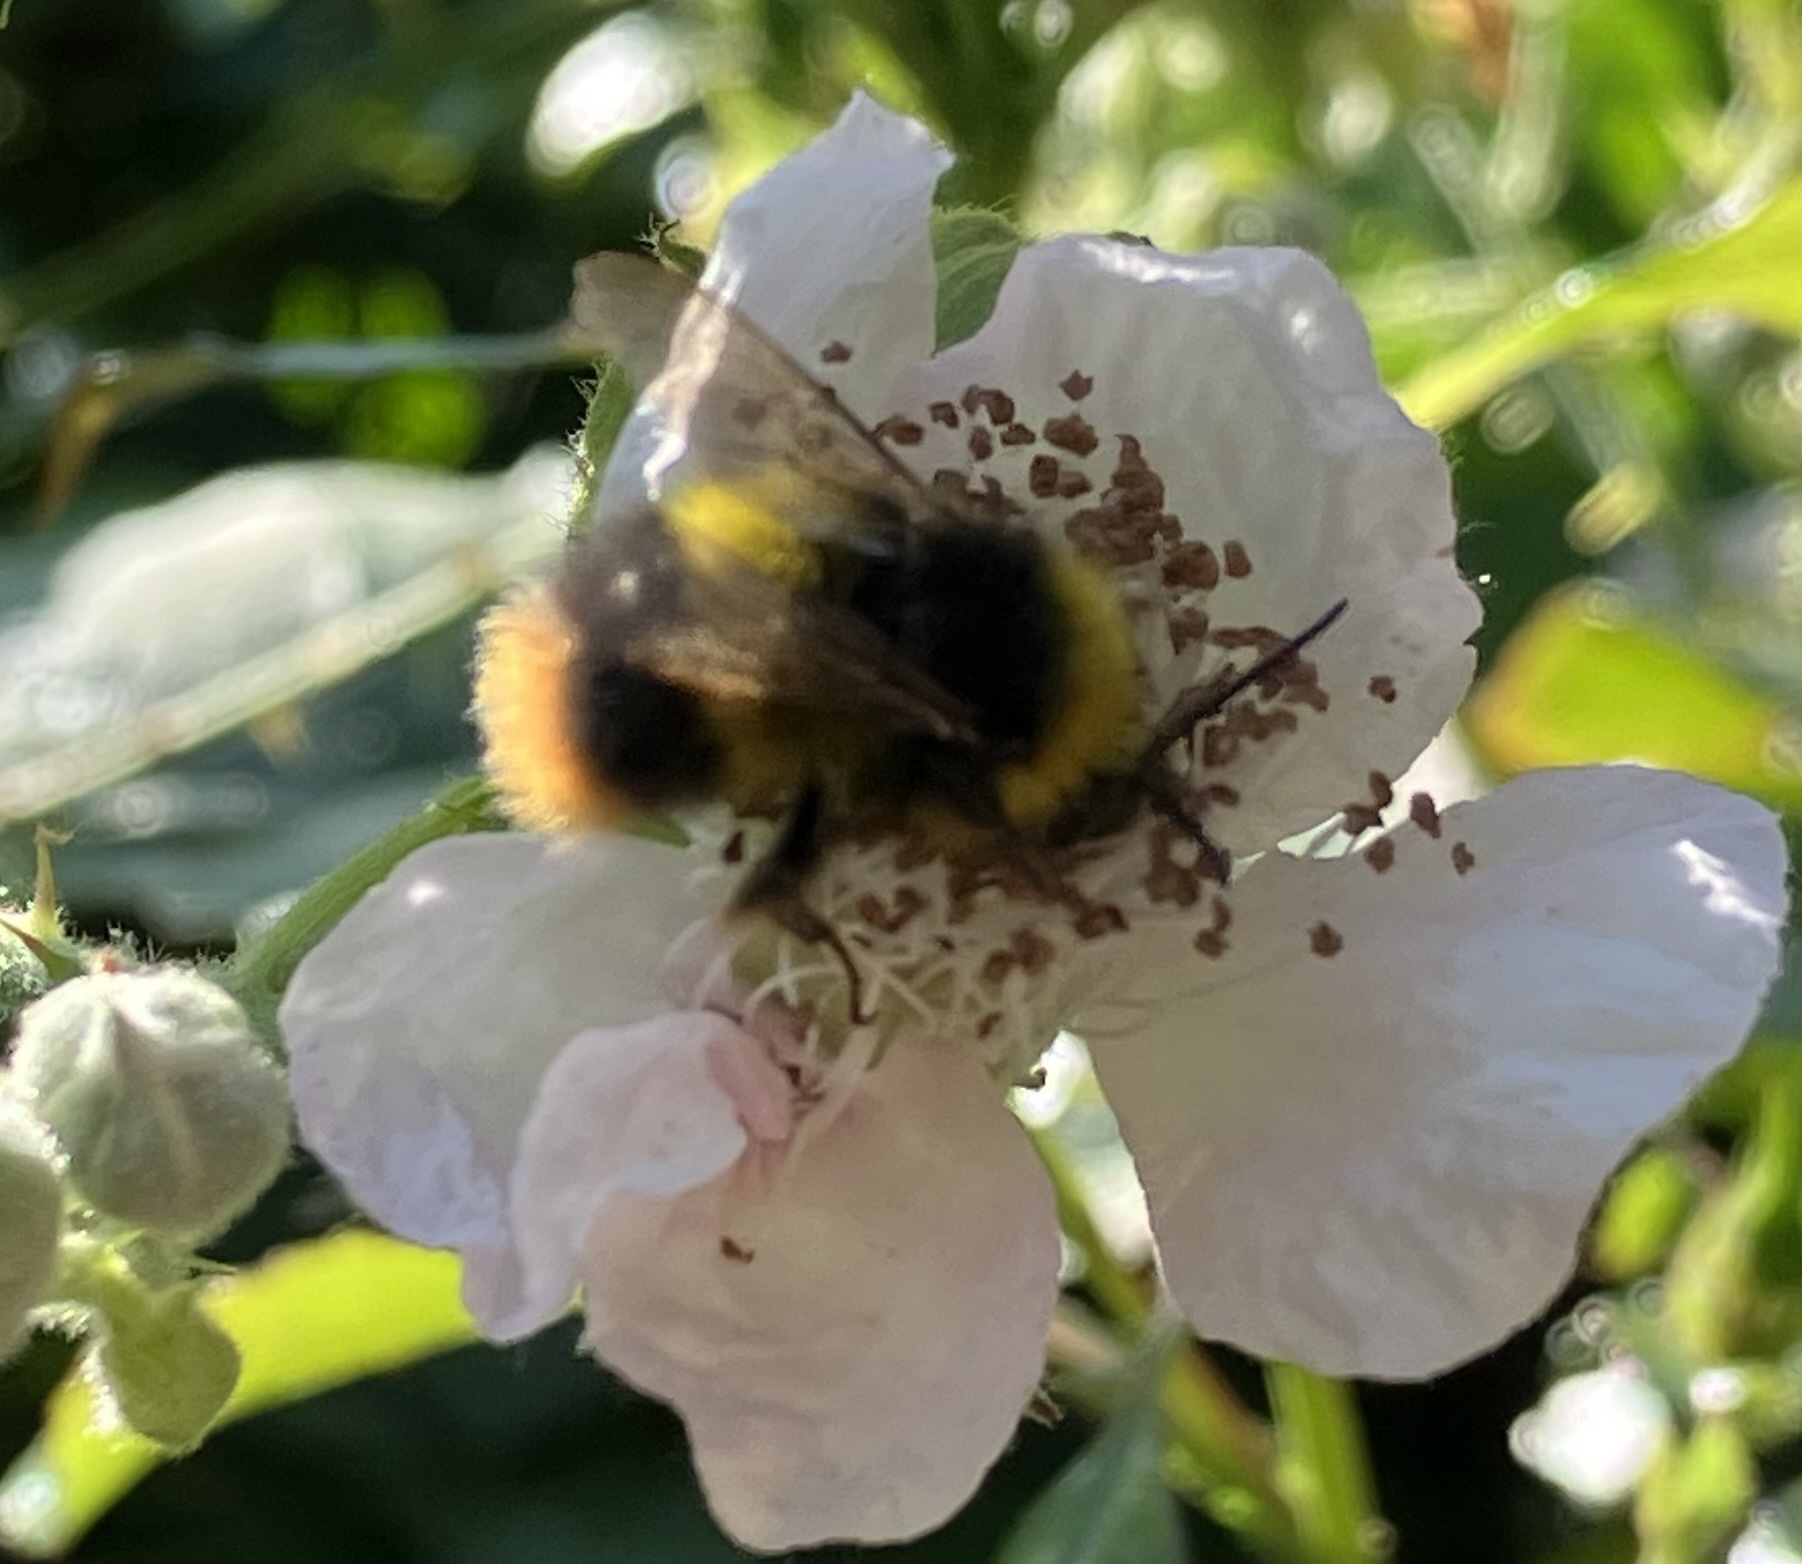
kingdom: Animalia
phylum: Arthropoda
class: Insecta
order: Hymenoptera
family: Apidae
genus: Bombus
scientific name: Bombus pratorum
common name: Early humble-bee
